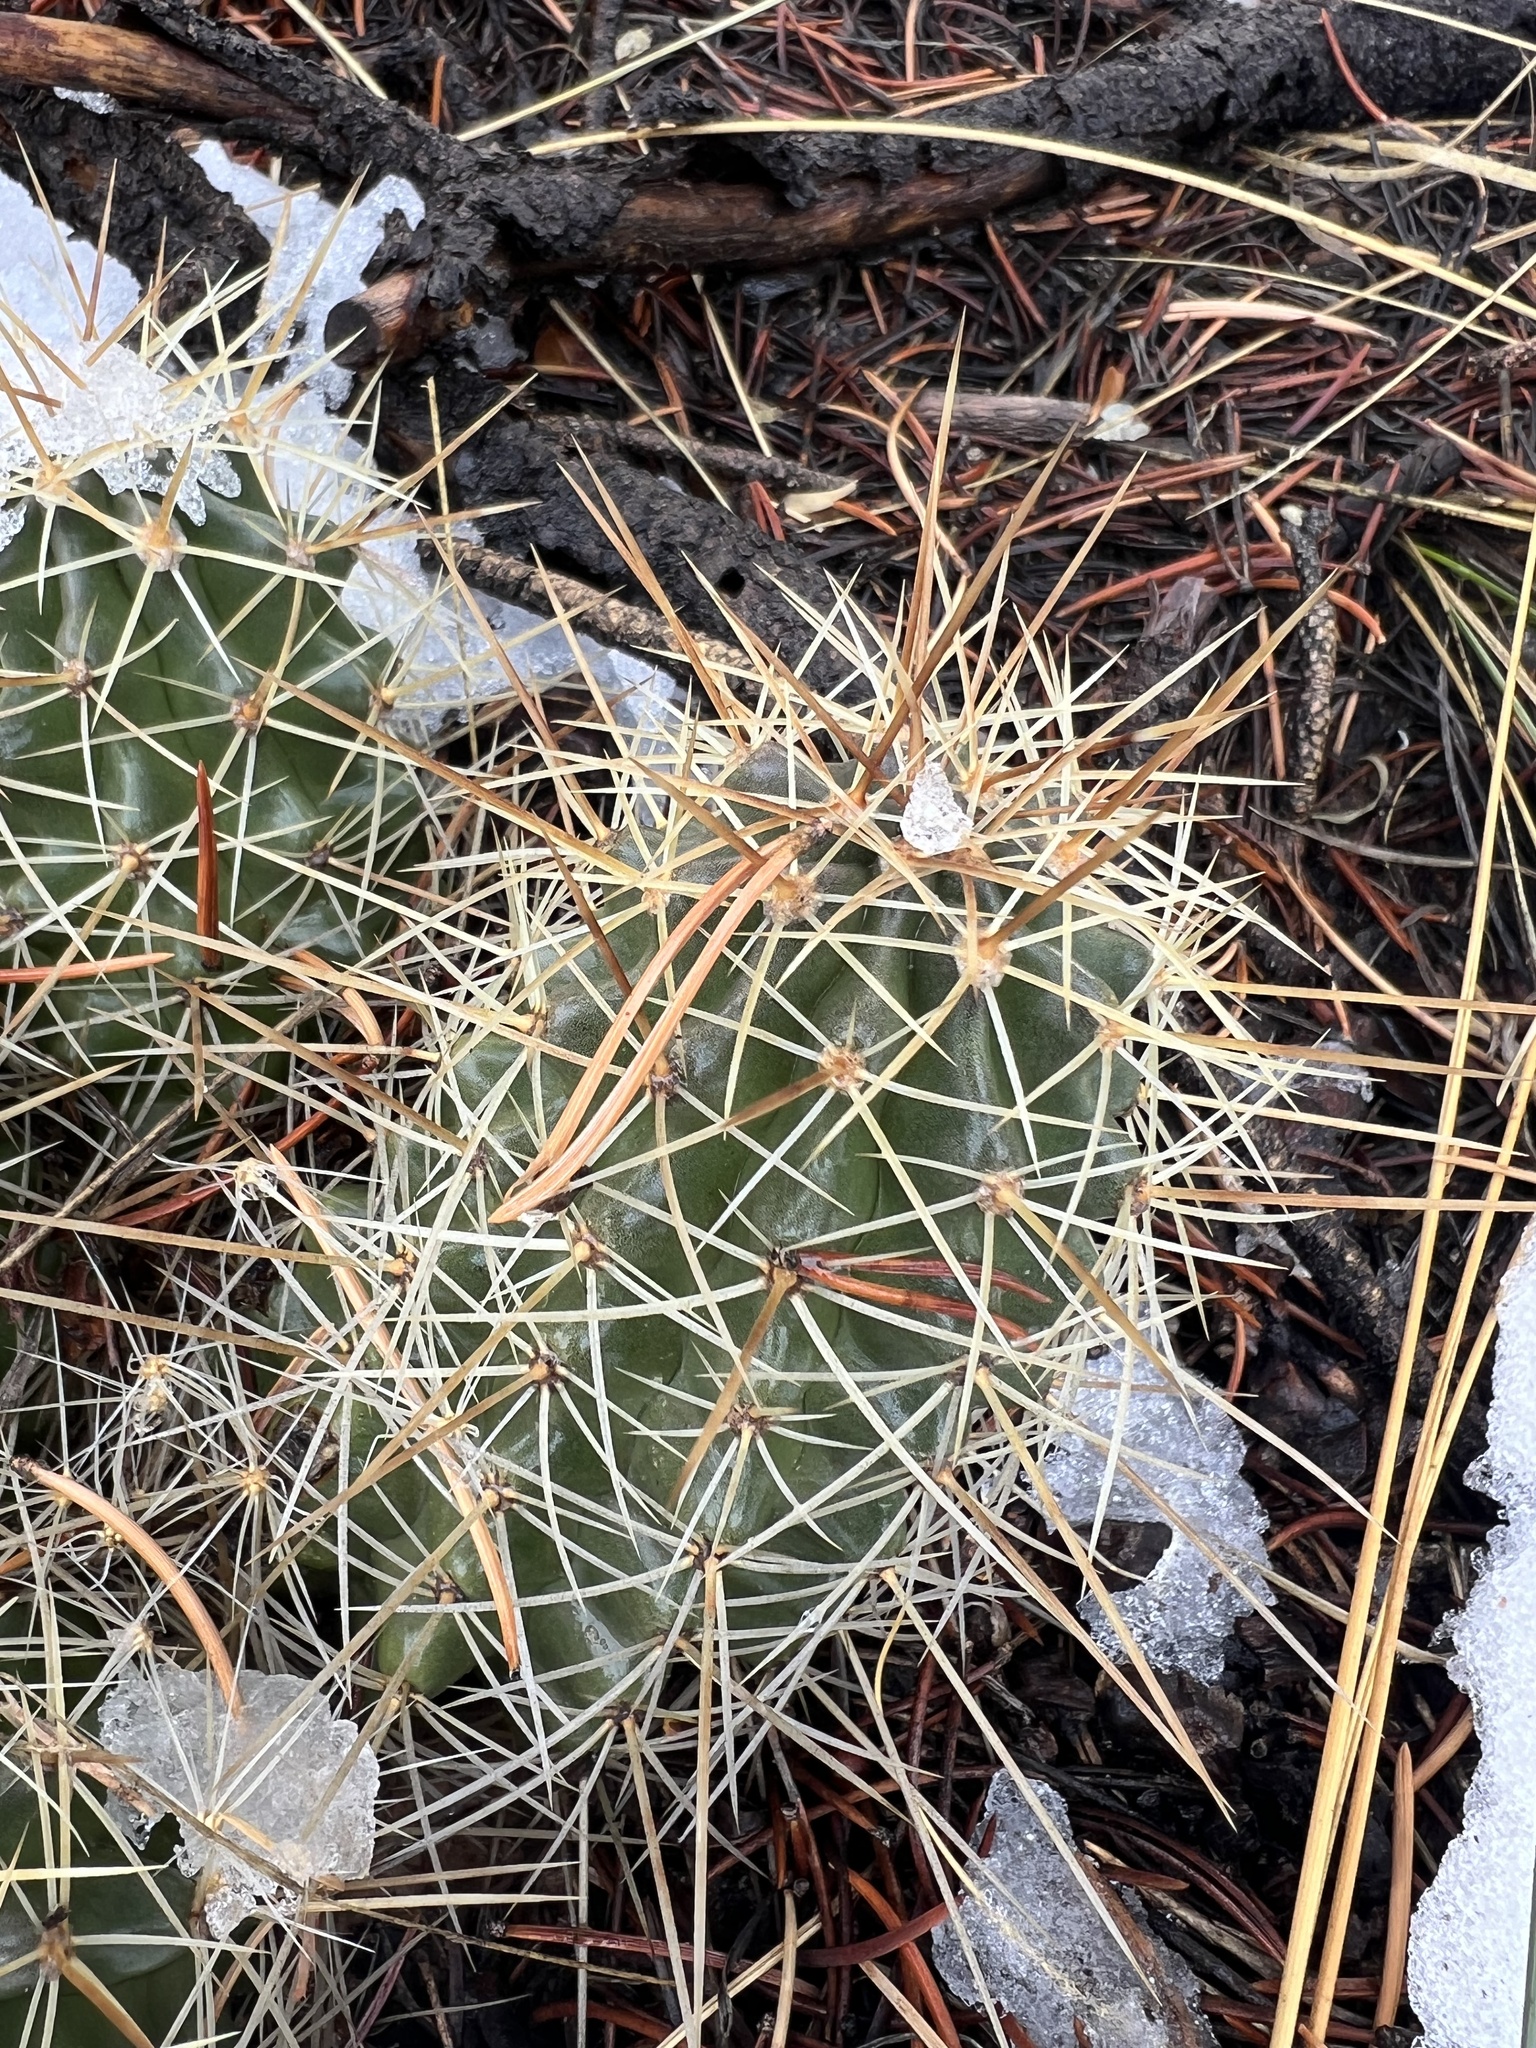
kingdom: Plantae
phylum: Tracheophyta
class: Magnoliopsida
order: Caryophyllales
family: Cactaceae
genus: Echinocereus
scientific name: Echinocereus triglochidiatus
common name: Claretcup hedgehog
